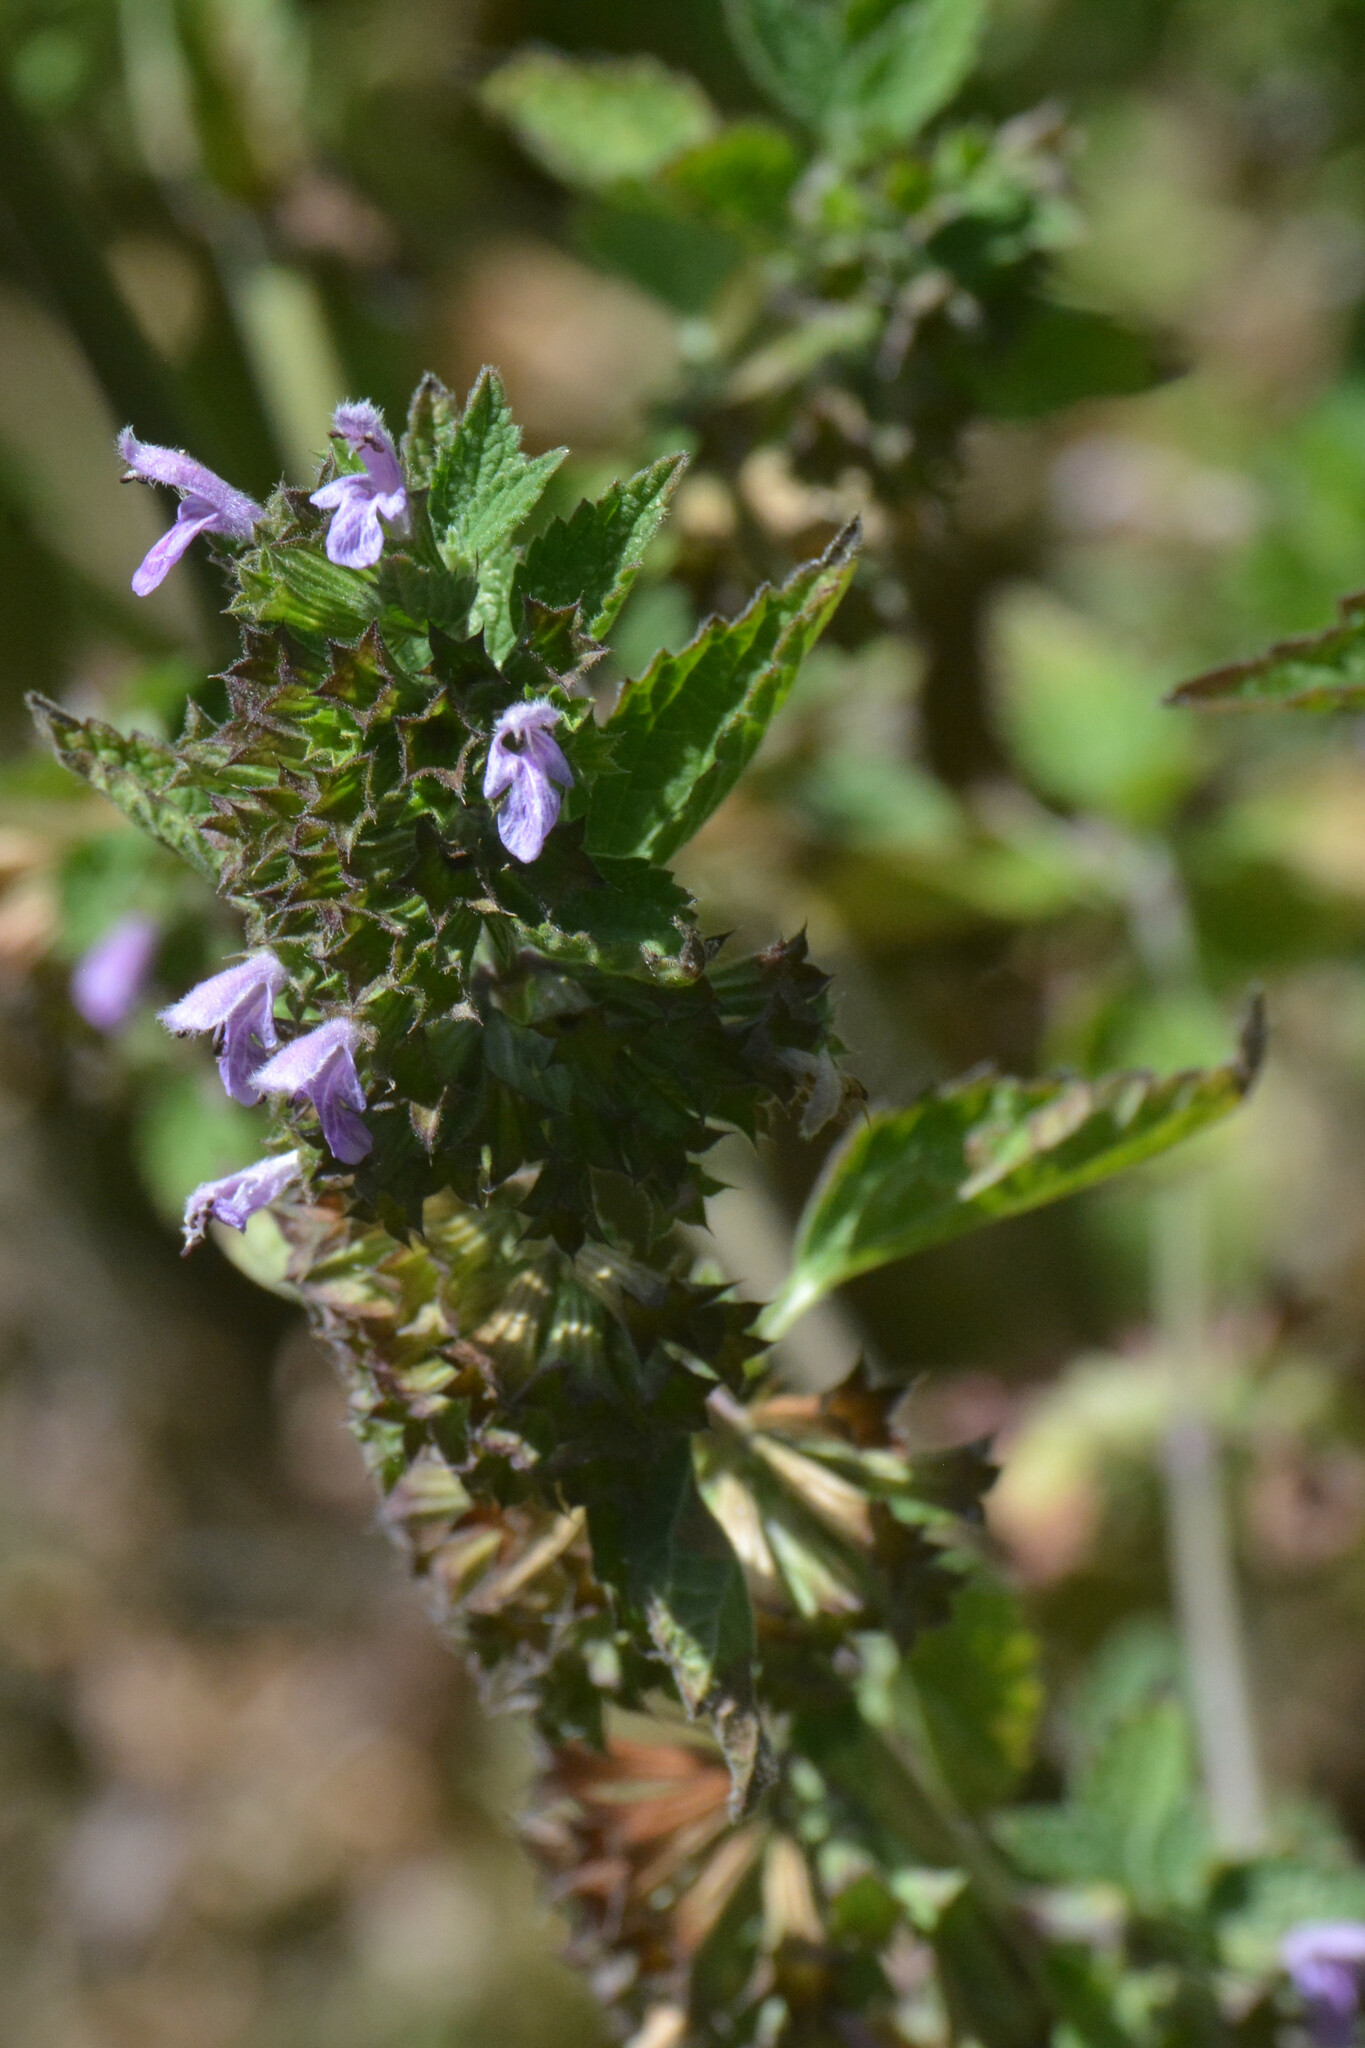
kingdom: Plantae
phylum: Tracheophyta
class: Magnoliopsida
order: Lamiales
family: Lamiaceae
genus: Ballota
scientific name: Ballota nigra
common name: Black horehound
